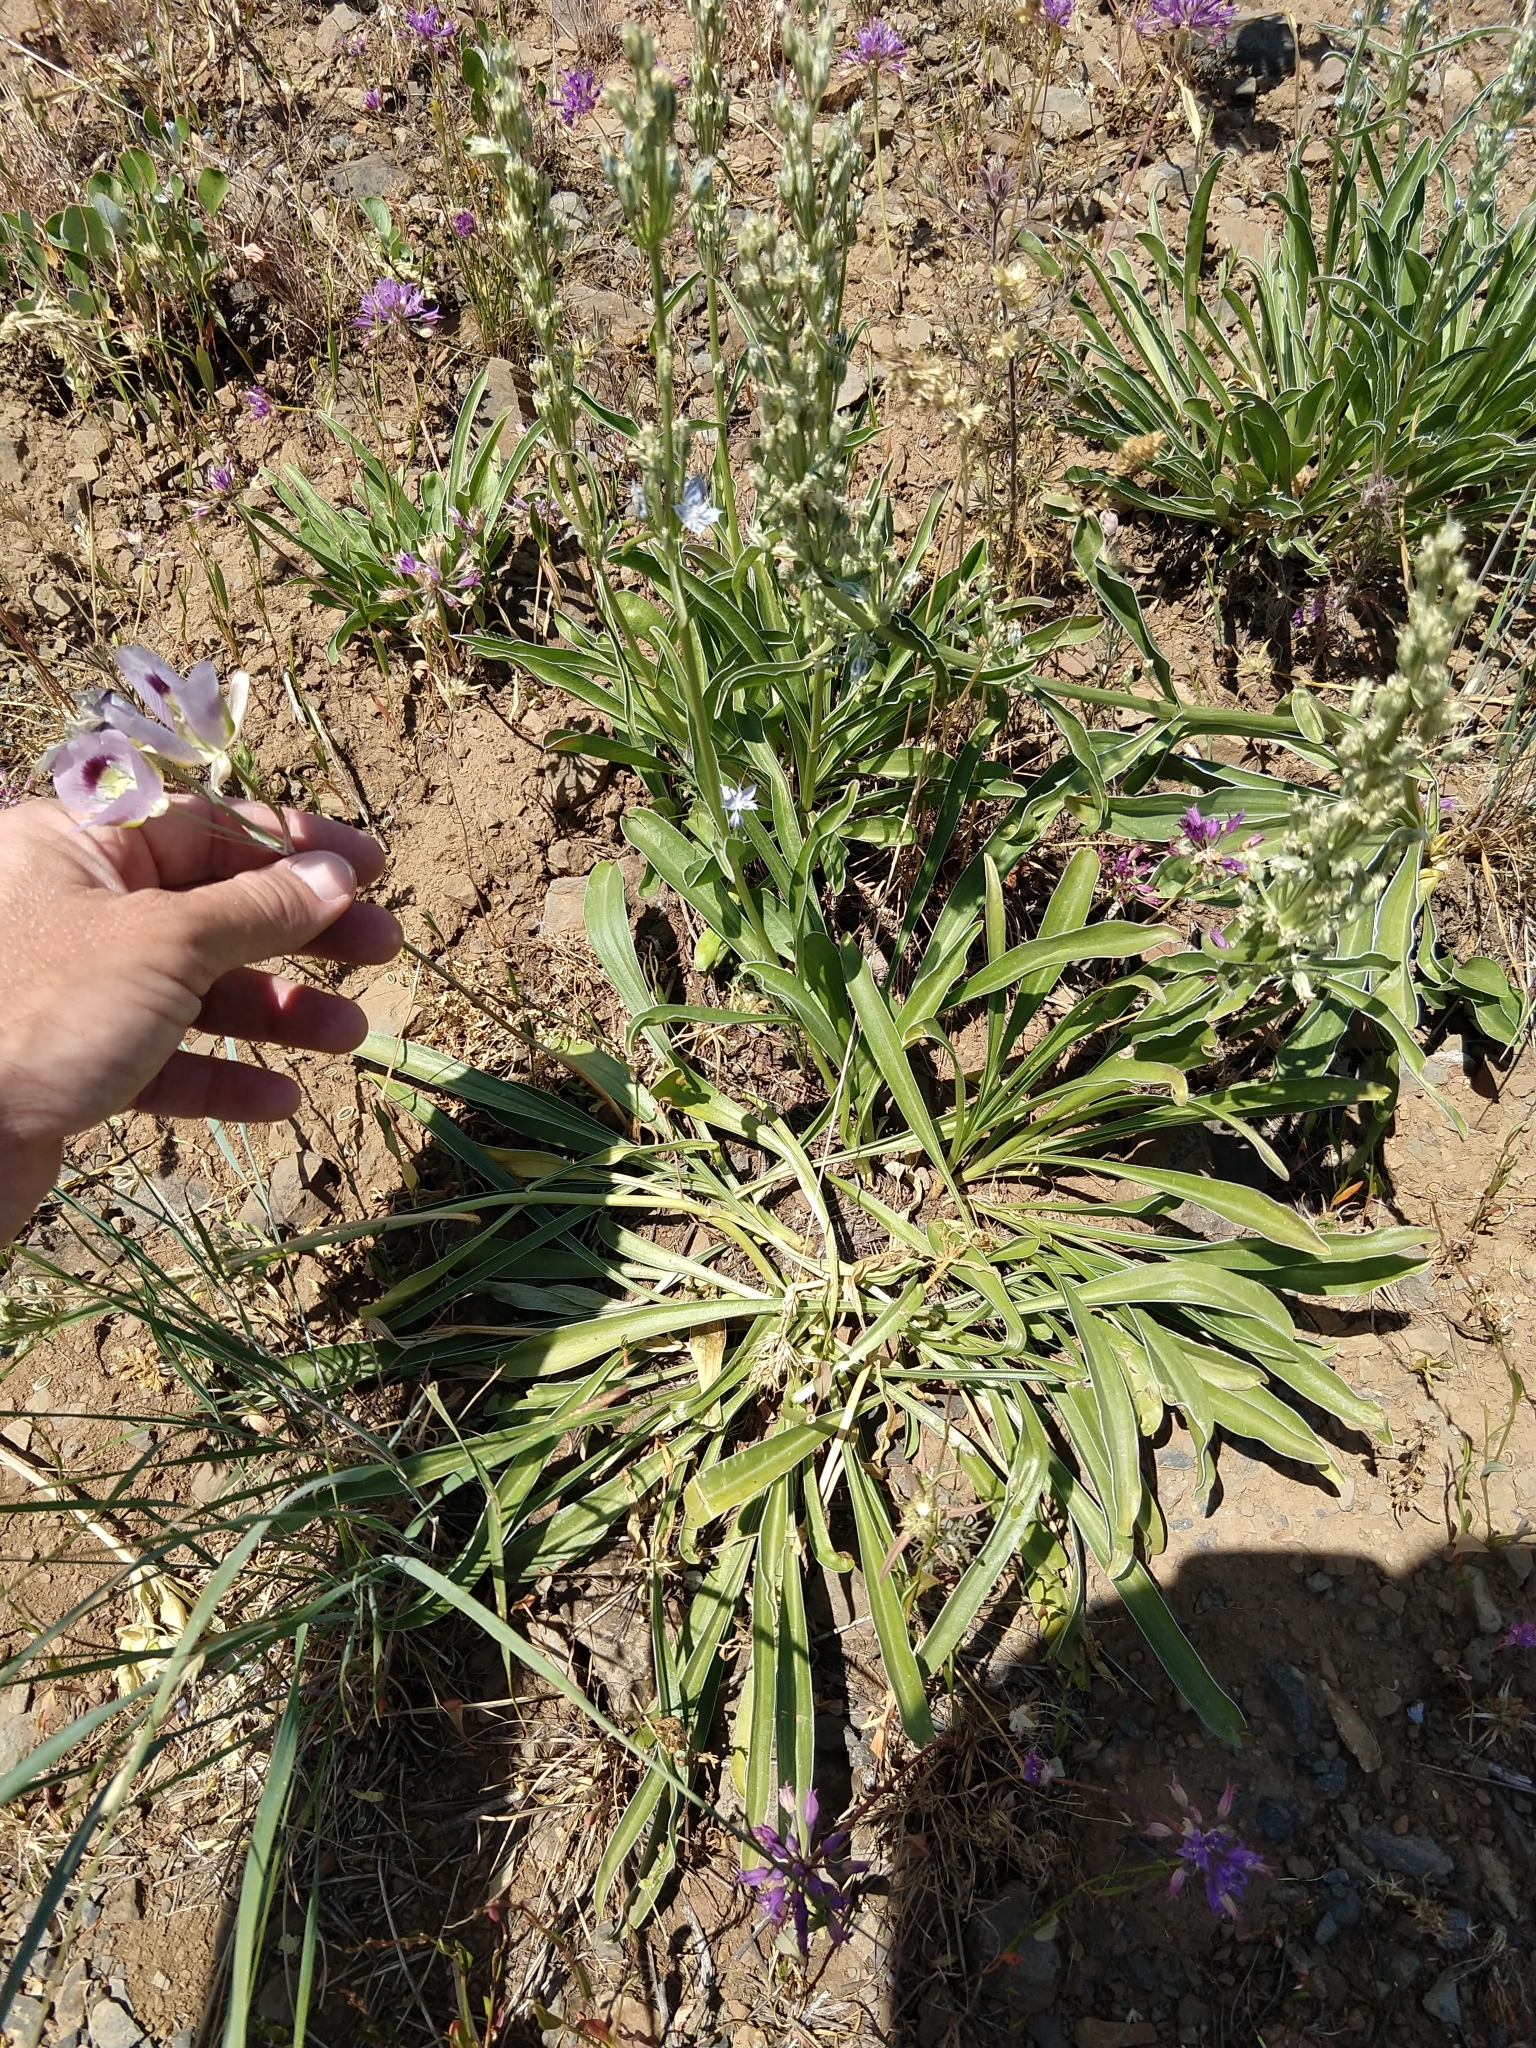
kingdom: Plantae
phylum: Tracheophyta
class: Magnoliopsida
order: Gentianales
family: Gentianaceae
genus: Frasera
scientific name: Frasera albicaulis
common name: Cusick's frasera
